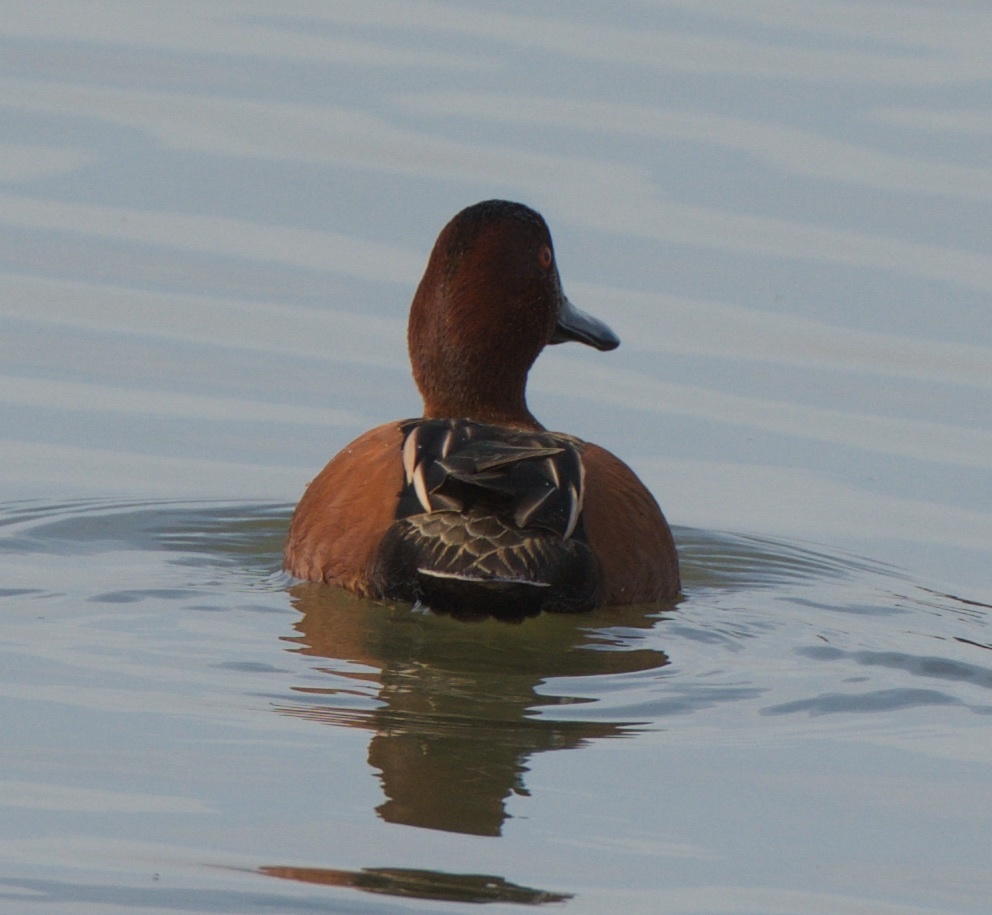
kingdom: Animalia
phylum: Chordata
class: Aves
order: Anseriformes
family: Anatidae
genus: Spatula
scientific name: Spatula cyanoptera
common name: Cinnamon teal
